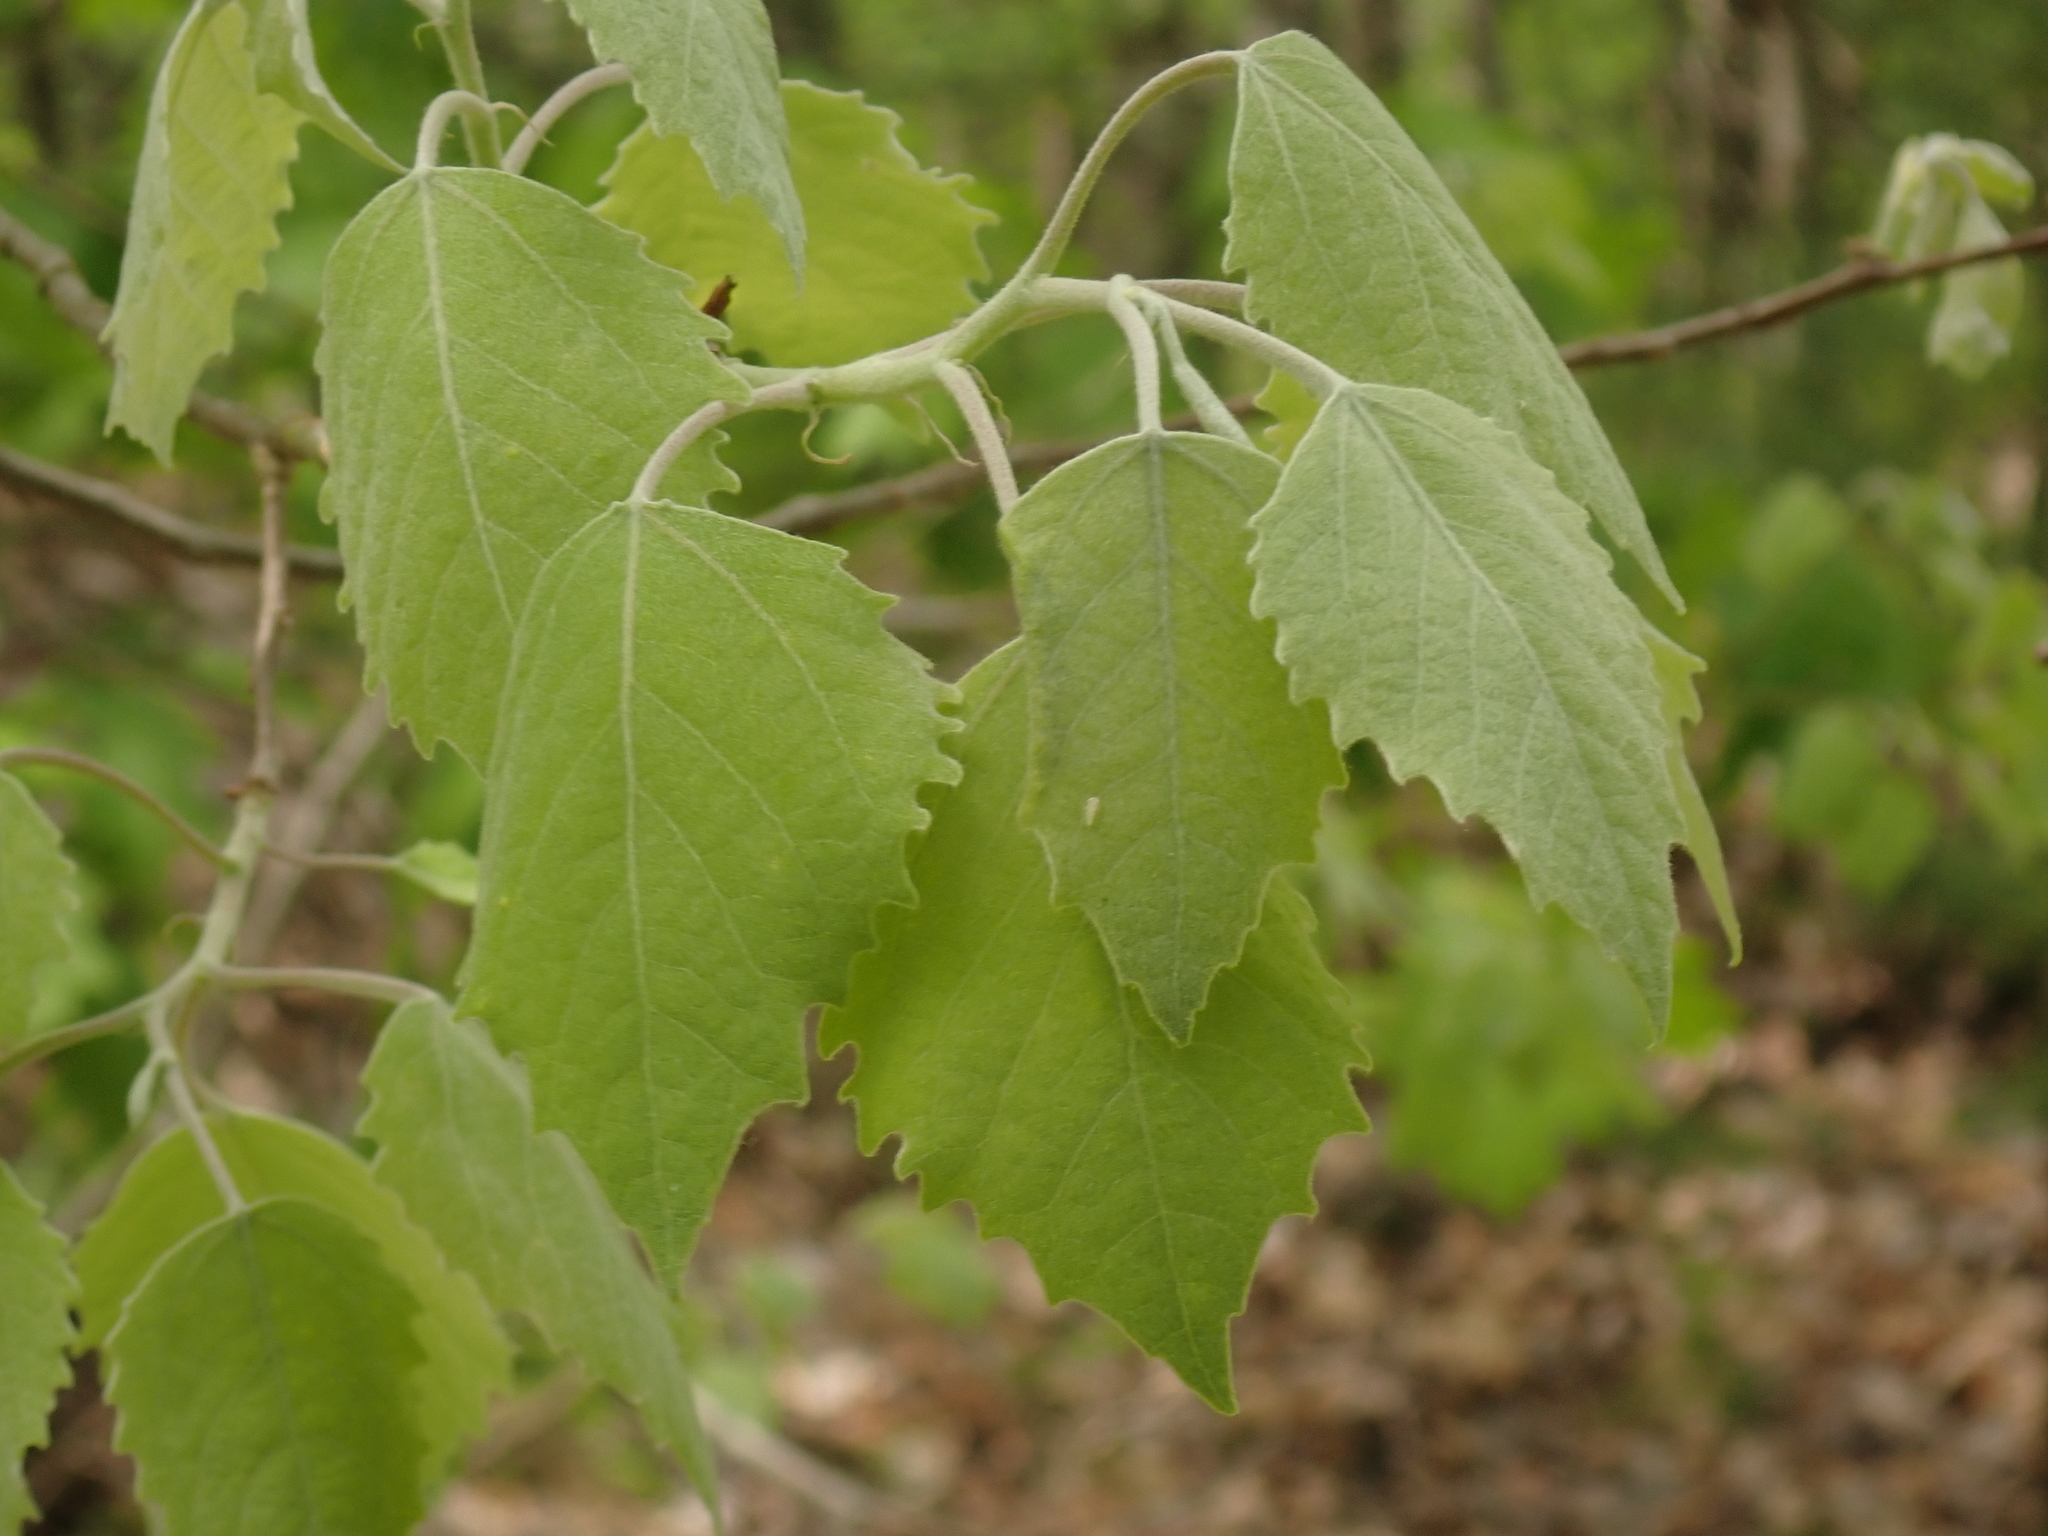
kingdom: Plantae
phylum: Tracheophyta
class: Magnoliopsida
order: Malpighiales
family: Salicaceae
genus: Populus
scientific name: Populus grandidentata
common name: Bigtooth aspen
